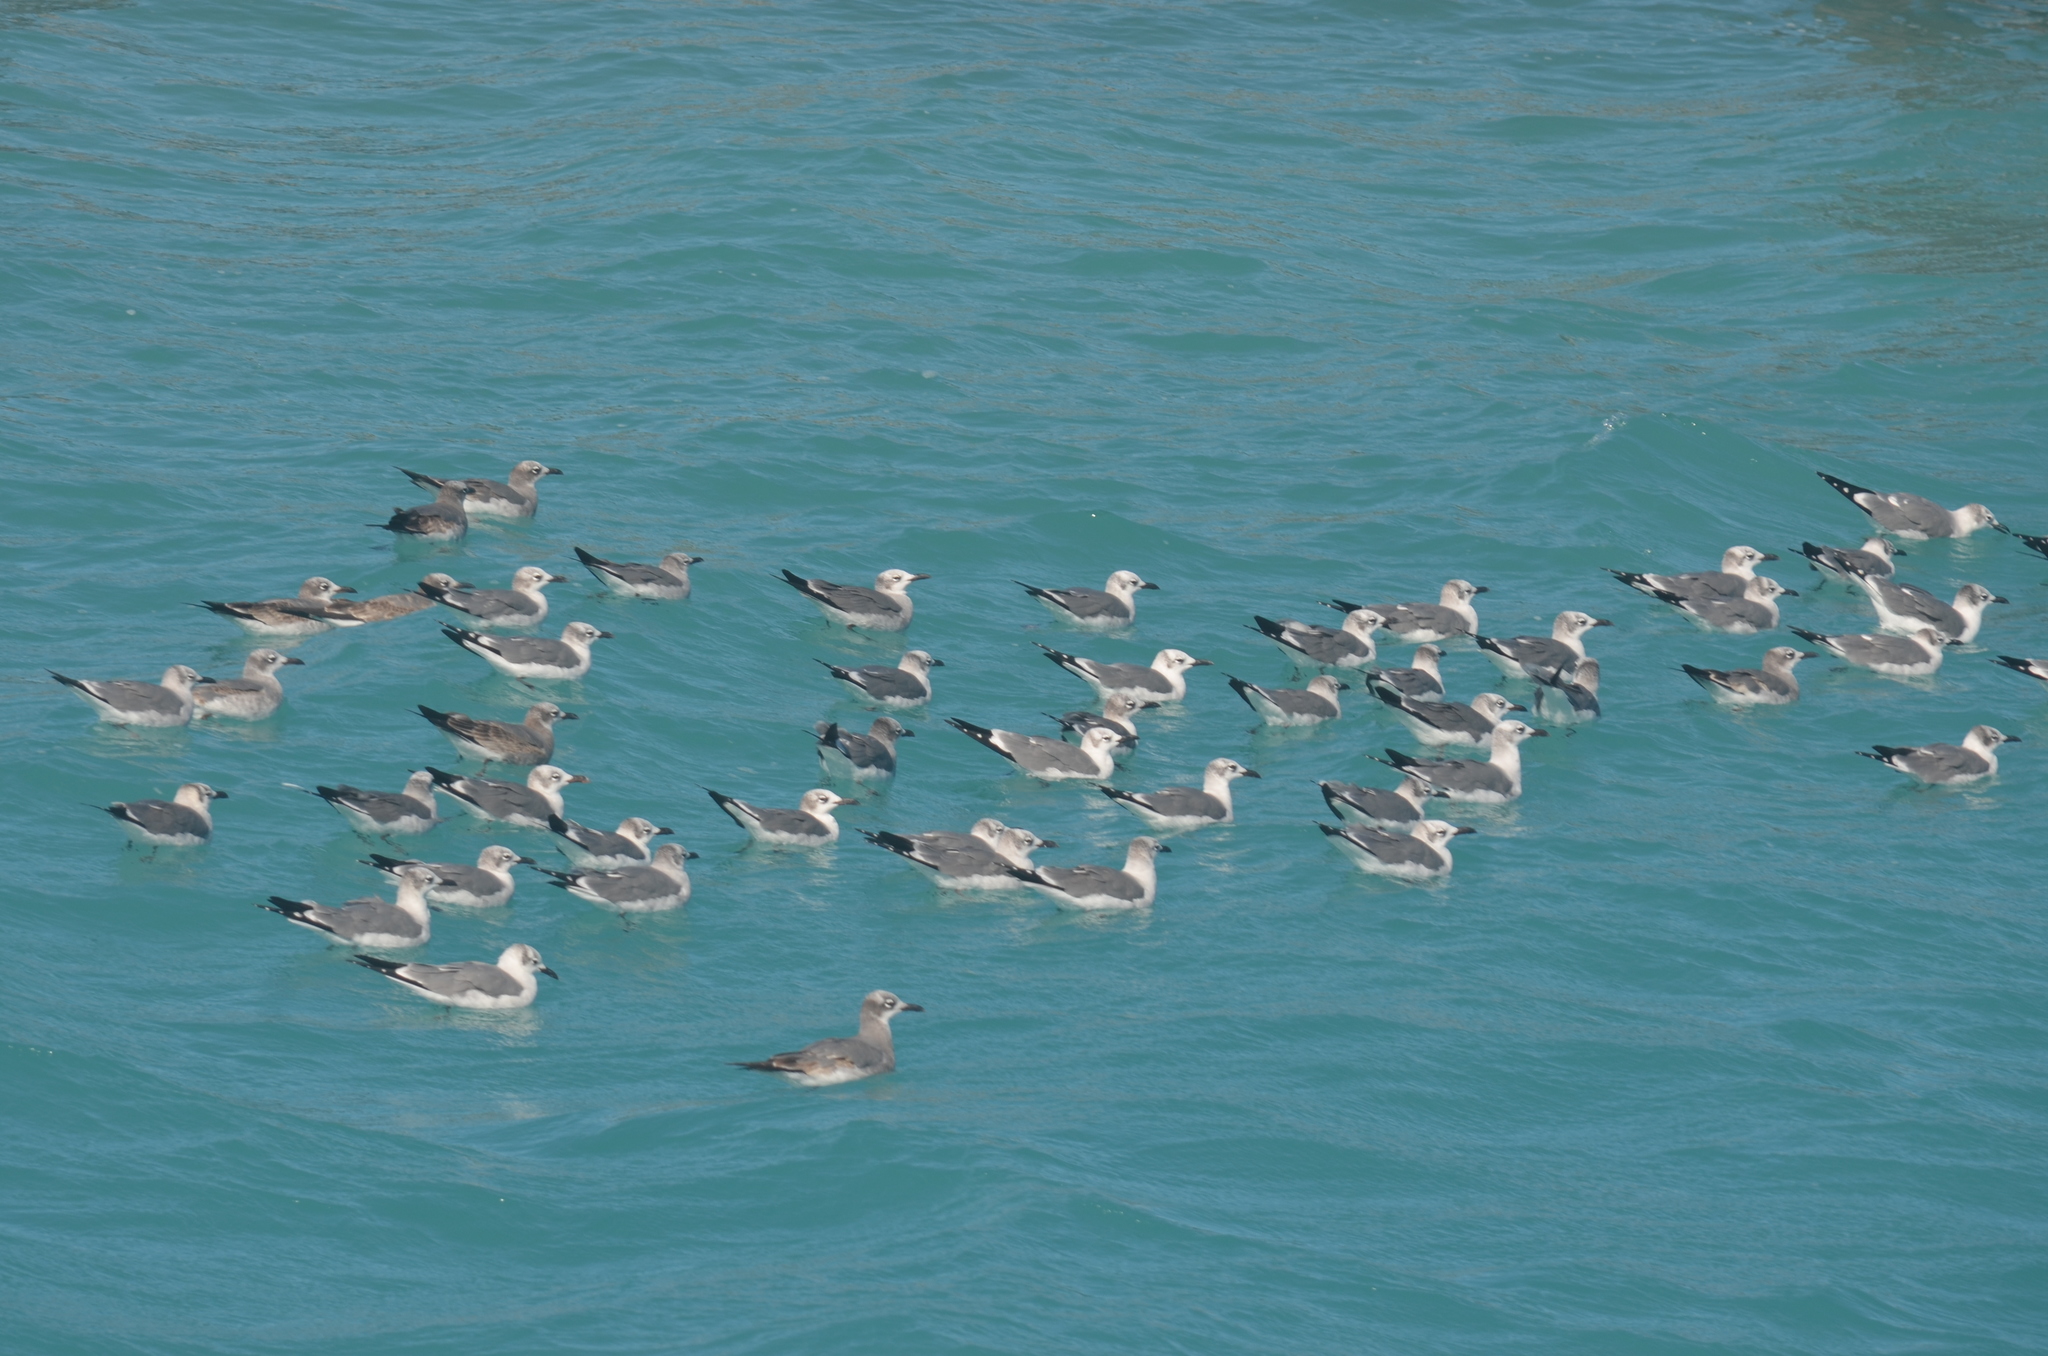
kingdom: Animalia
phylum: Chordata
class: Aves
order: Charadriiformes
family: Laridae
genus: Leucophaeus
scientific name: Leucophaeus atricilla
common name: Laughing gull
